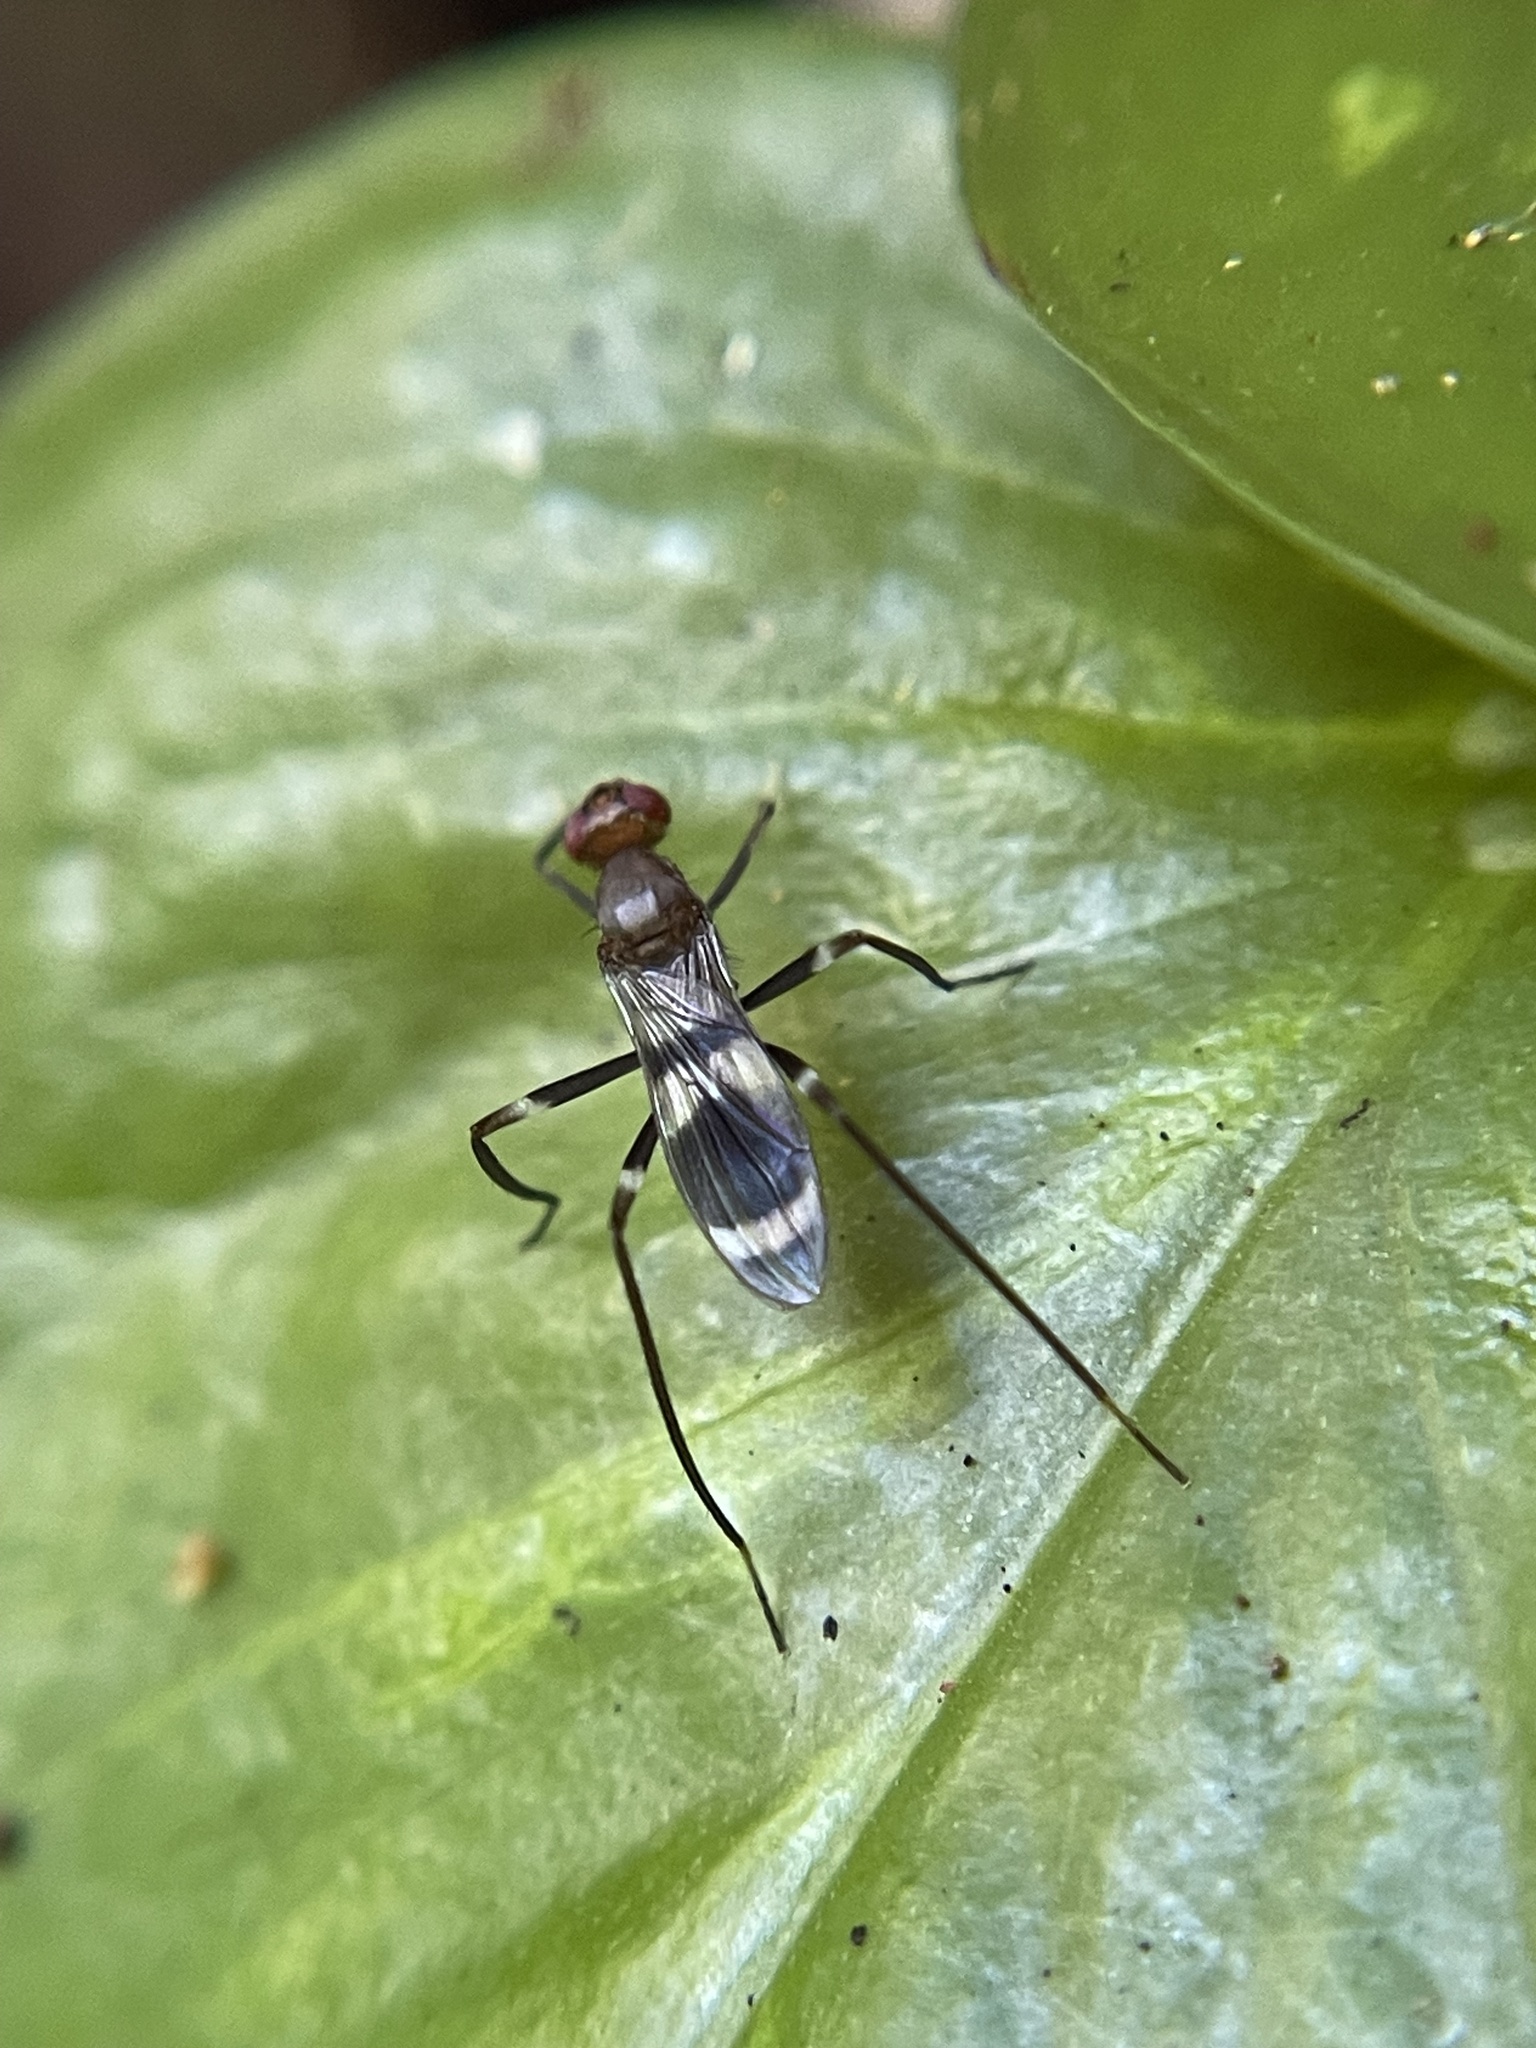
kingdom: Animalia
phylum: Arthropoda
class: Insecta
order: Diptera
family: Micropezidae
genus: Paragrallomyia
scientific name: Paragrallomyia
